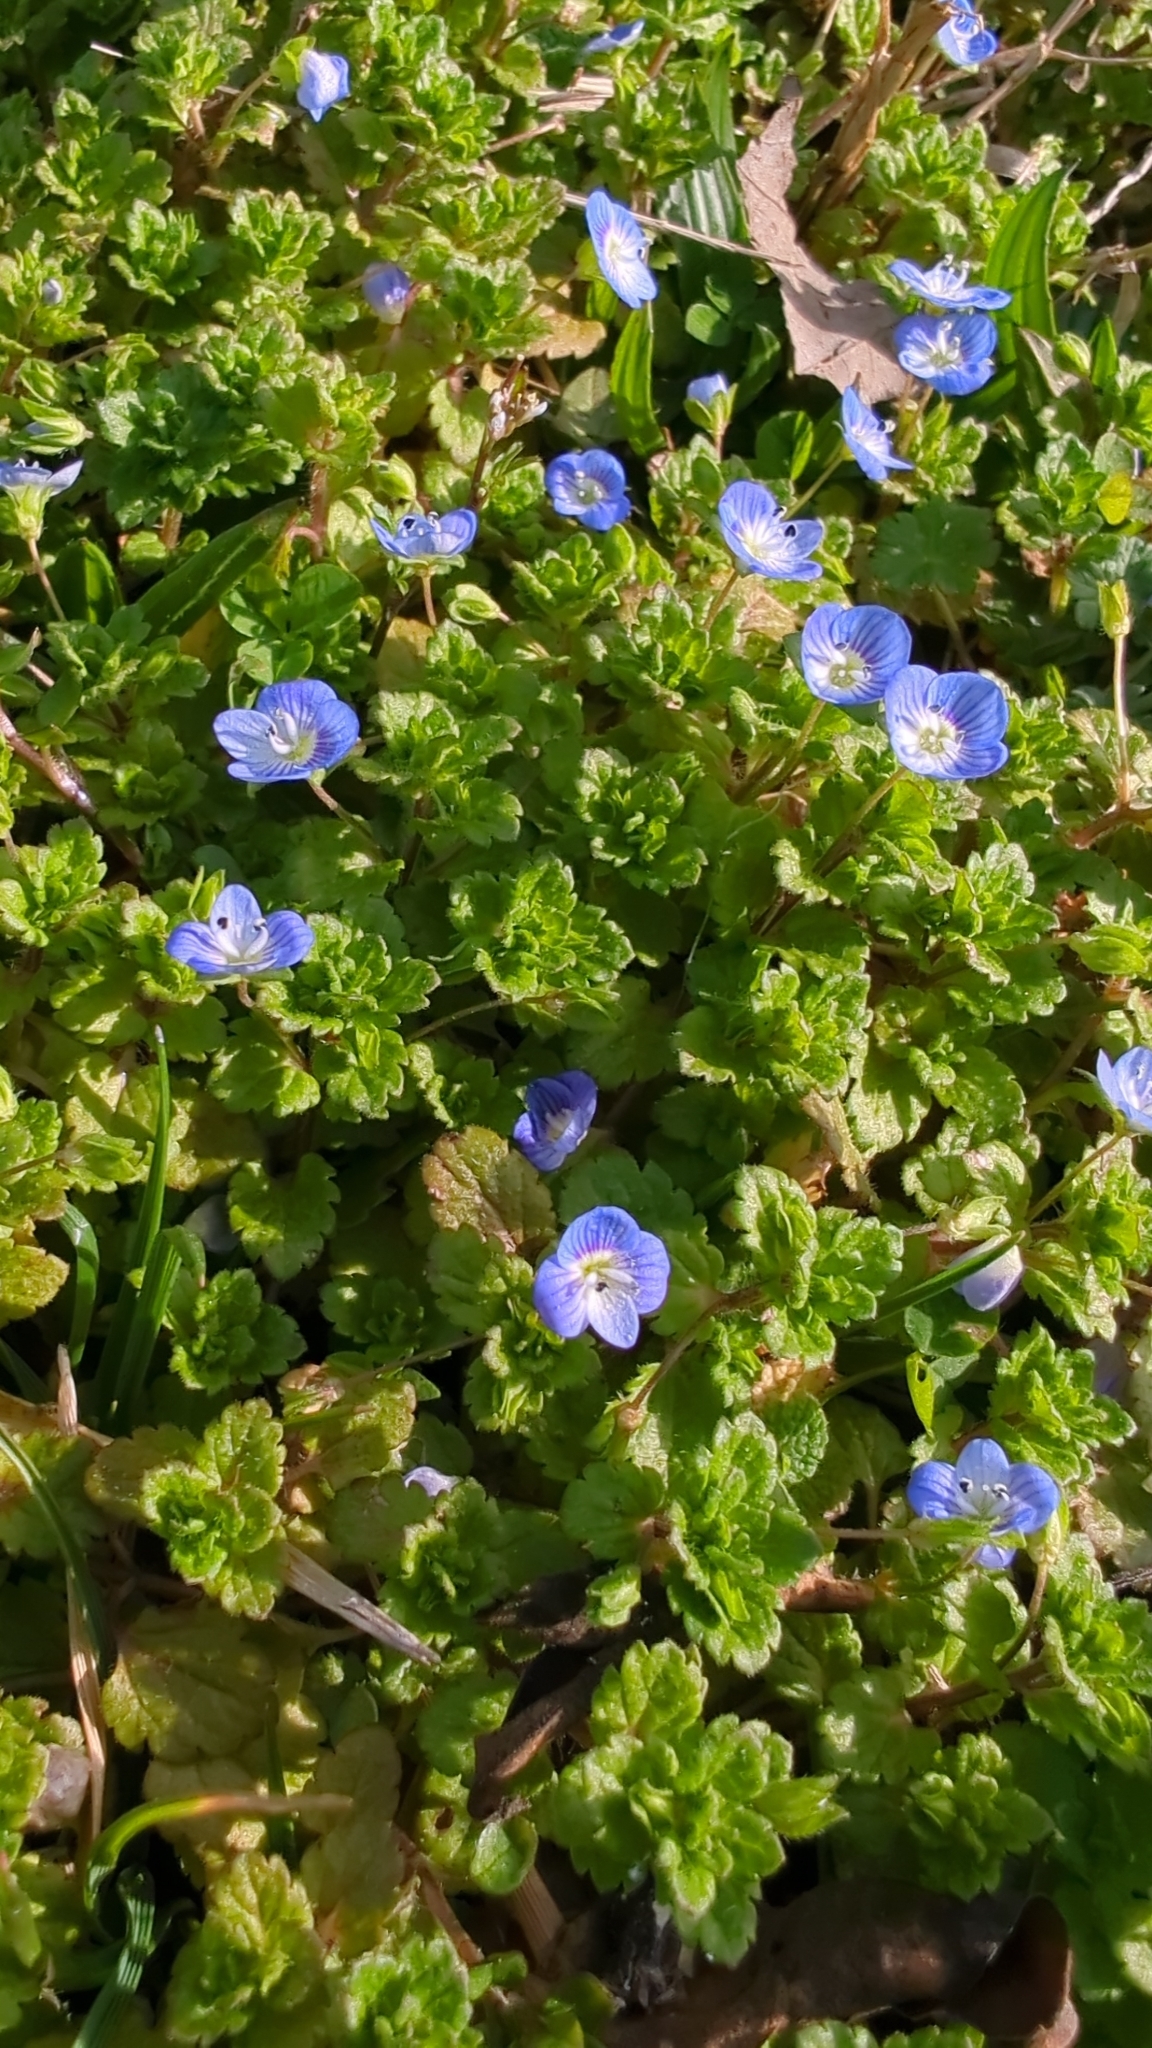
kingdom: Plantae
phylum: Tracheophyta
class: Magnoliopsida
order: Lamiales
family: Plantaginaceae
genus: Veronica
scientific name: Veronica persica
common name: Common field-speedwell
